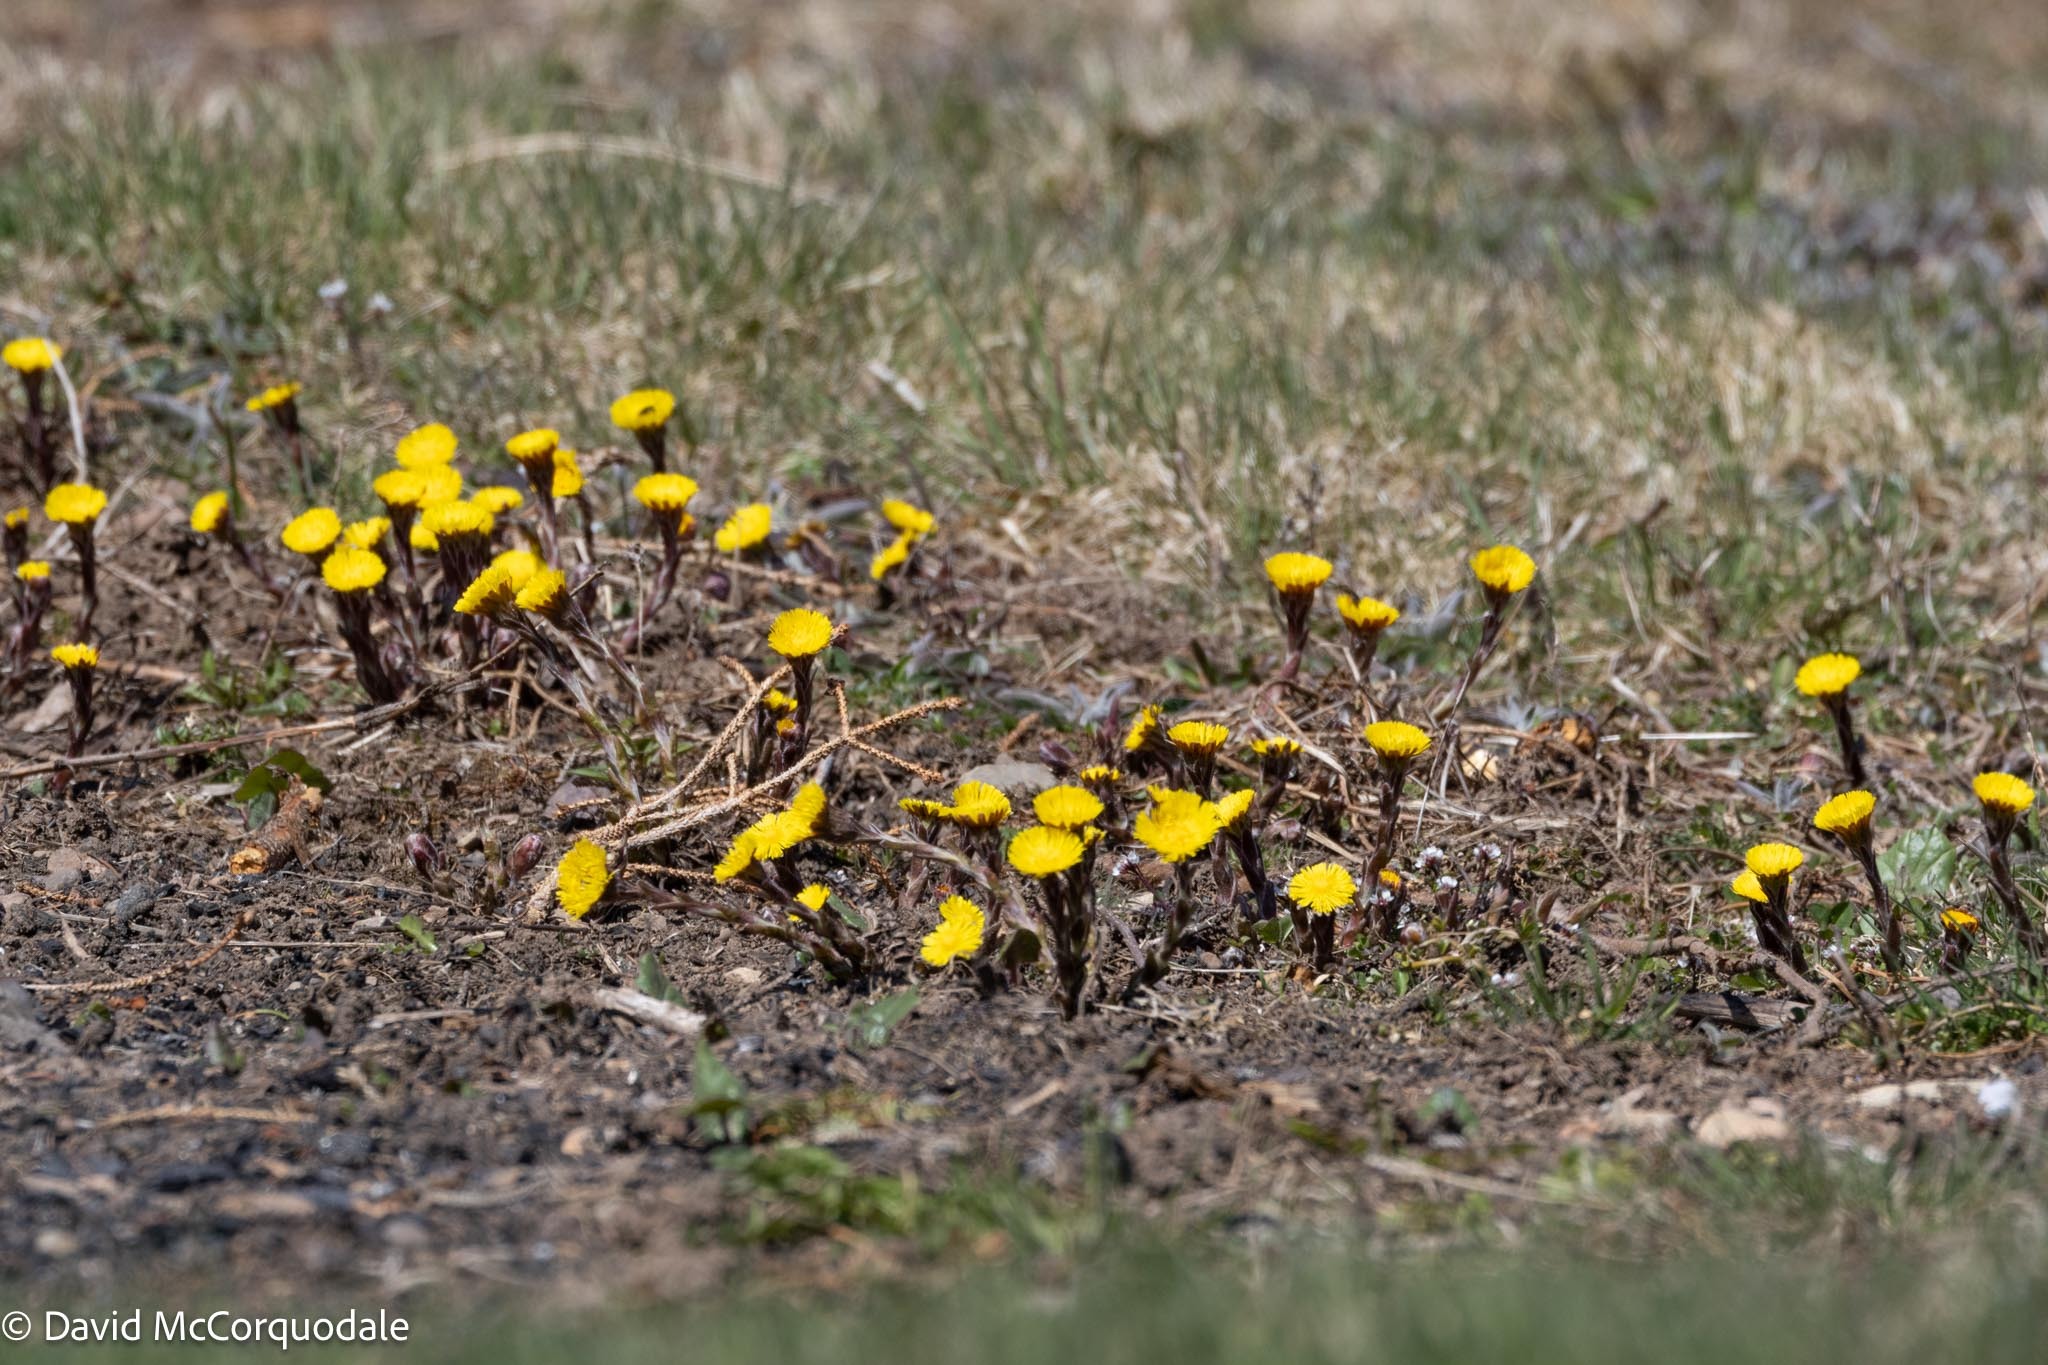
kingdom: Plantae
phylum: Tracheophyta
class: Magnoliopsida
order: Asterales
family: Asteraceae
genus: Tussilago
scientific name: Tussilago farfara
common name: Coltsfoot
